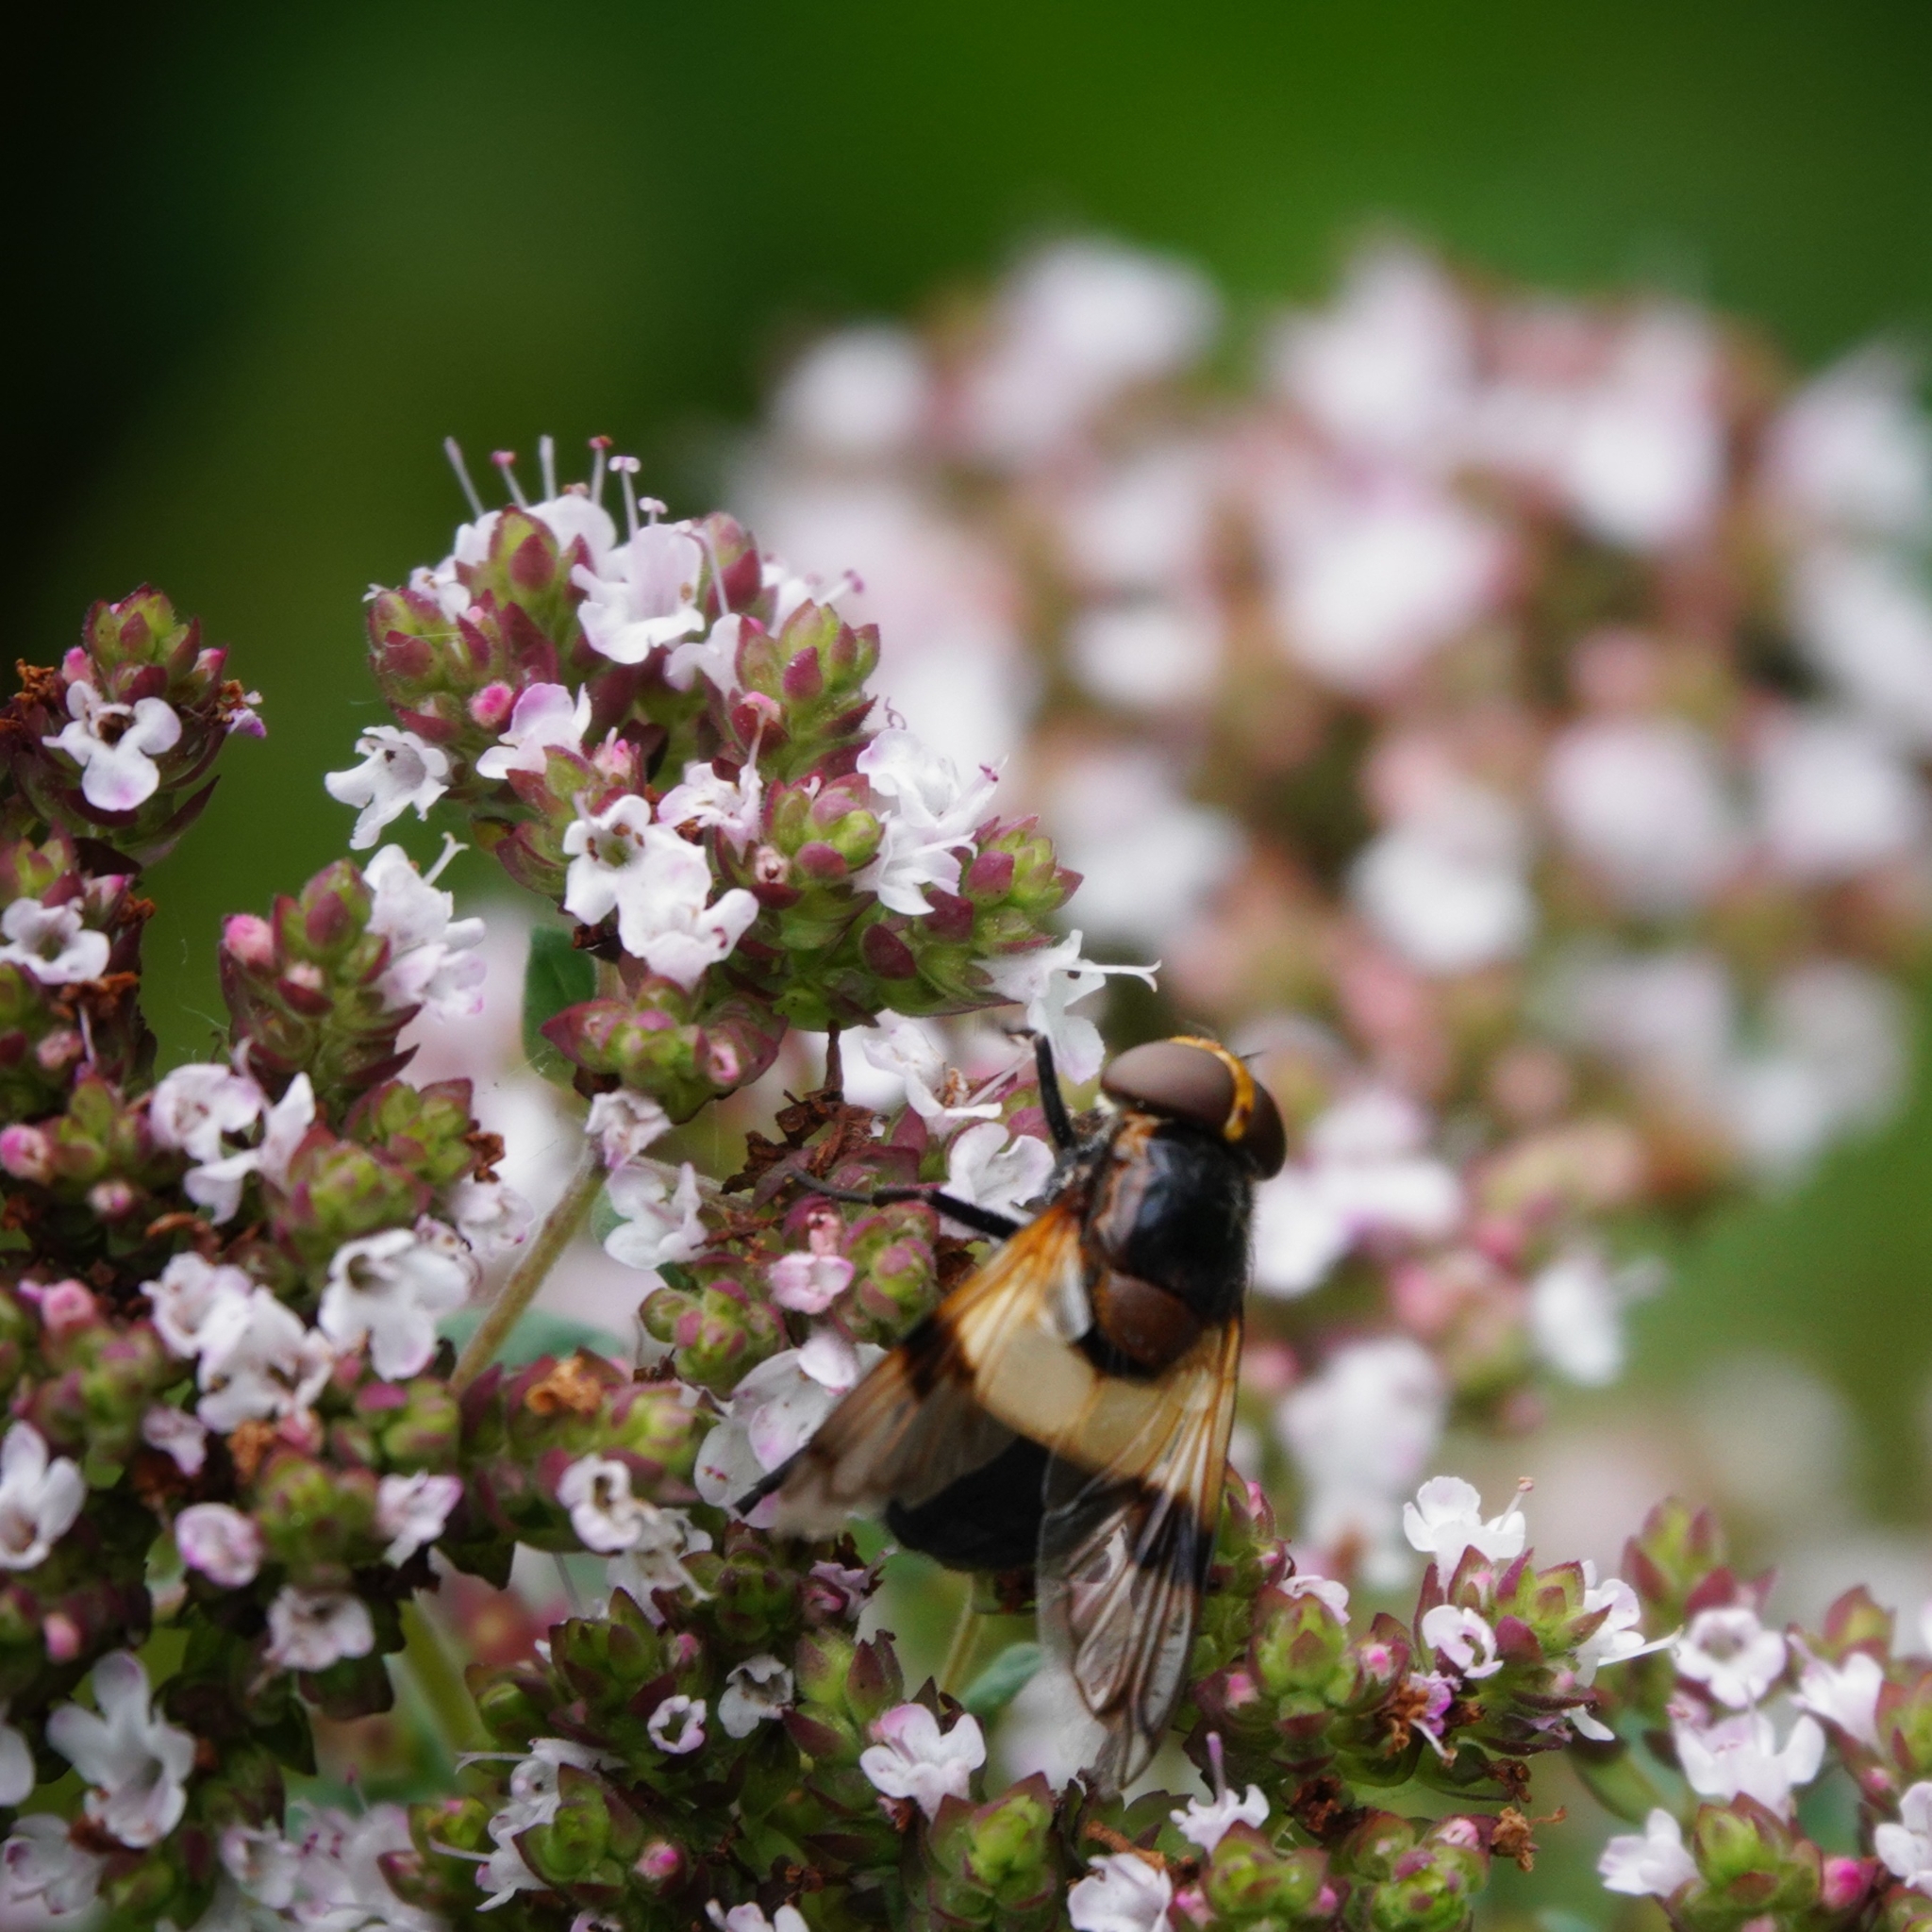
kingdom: Animalia
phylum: Arthropoda
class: Insecta
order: Diptera
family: Syrphidae
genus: Volucella
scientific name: Volucella pellucens
